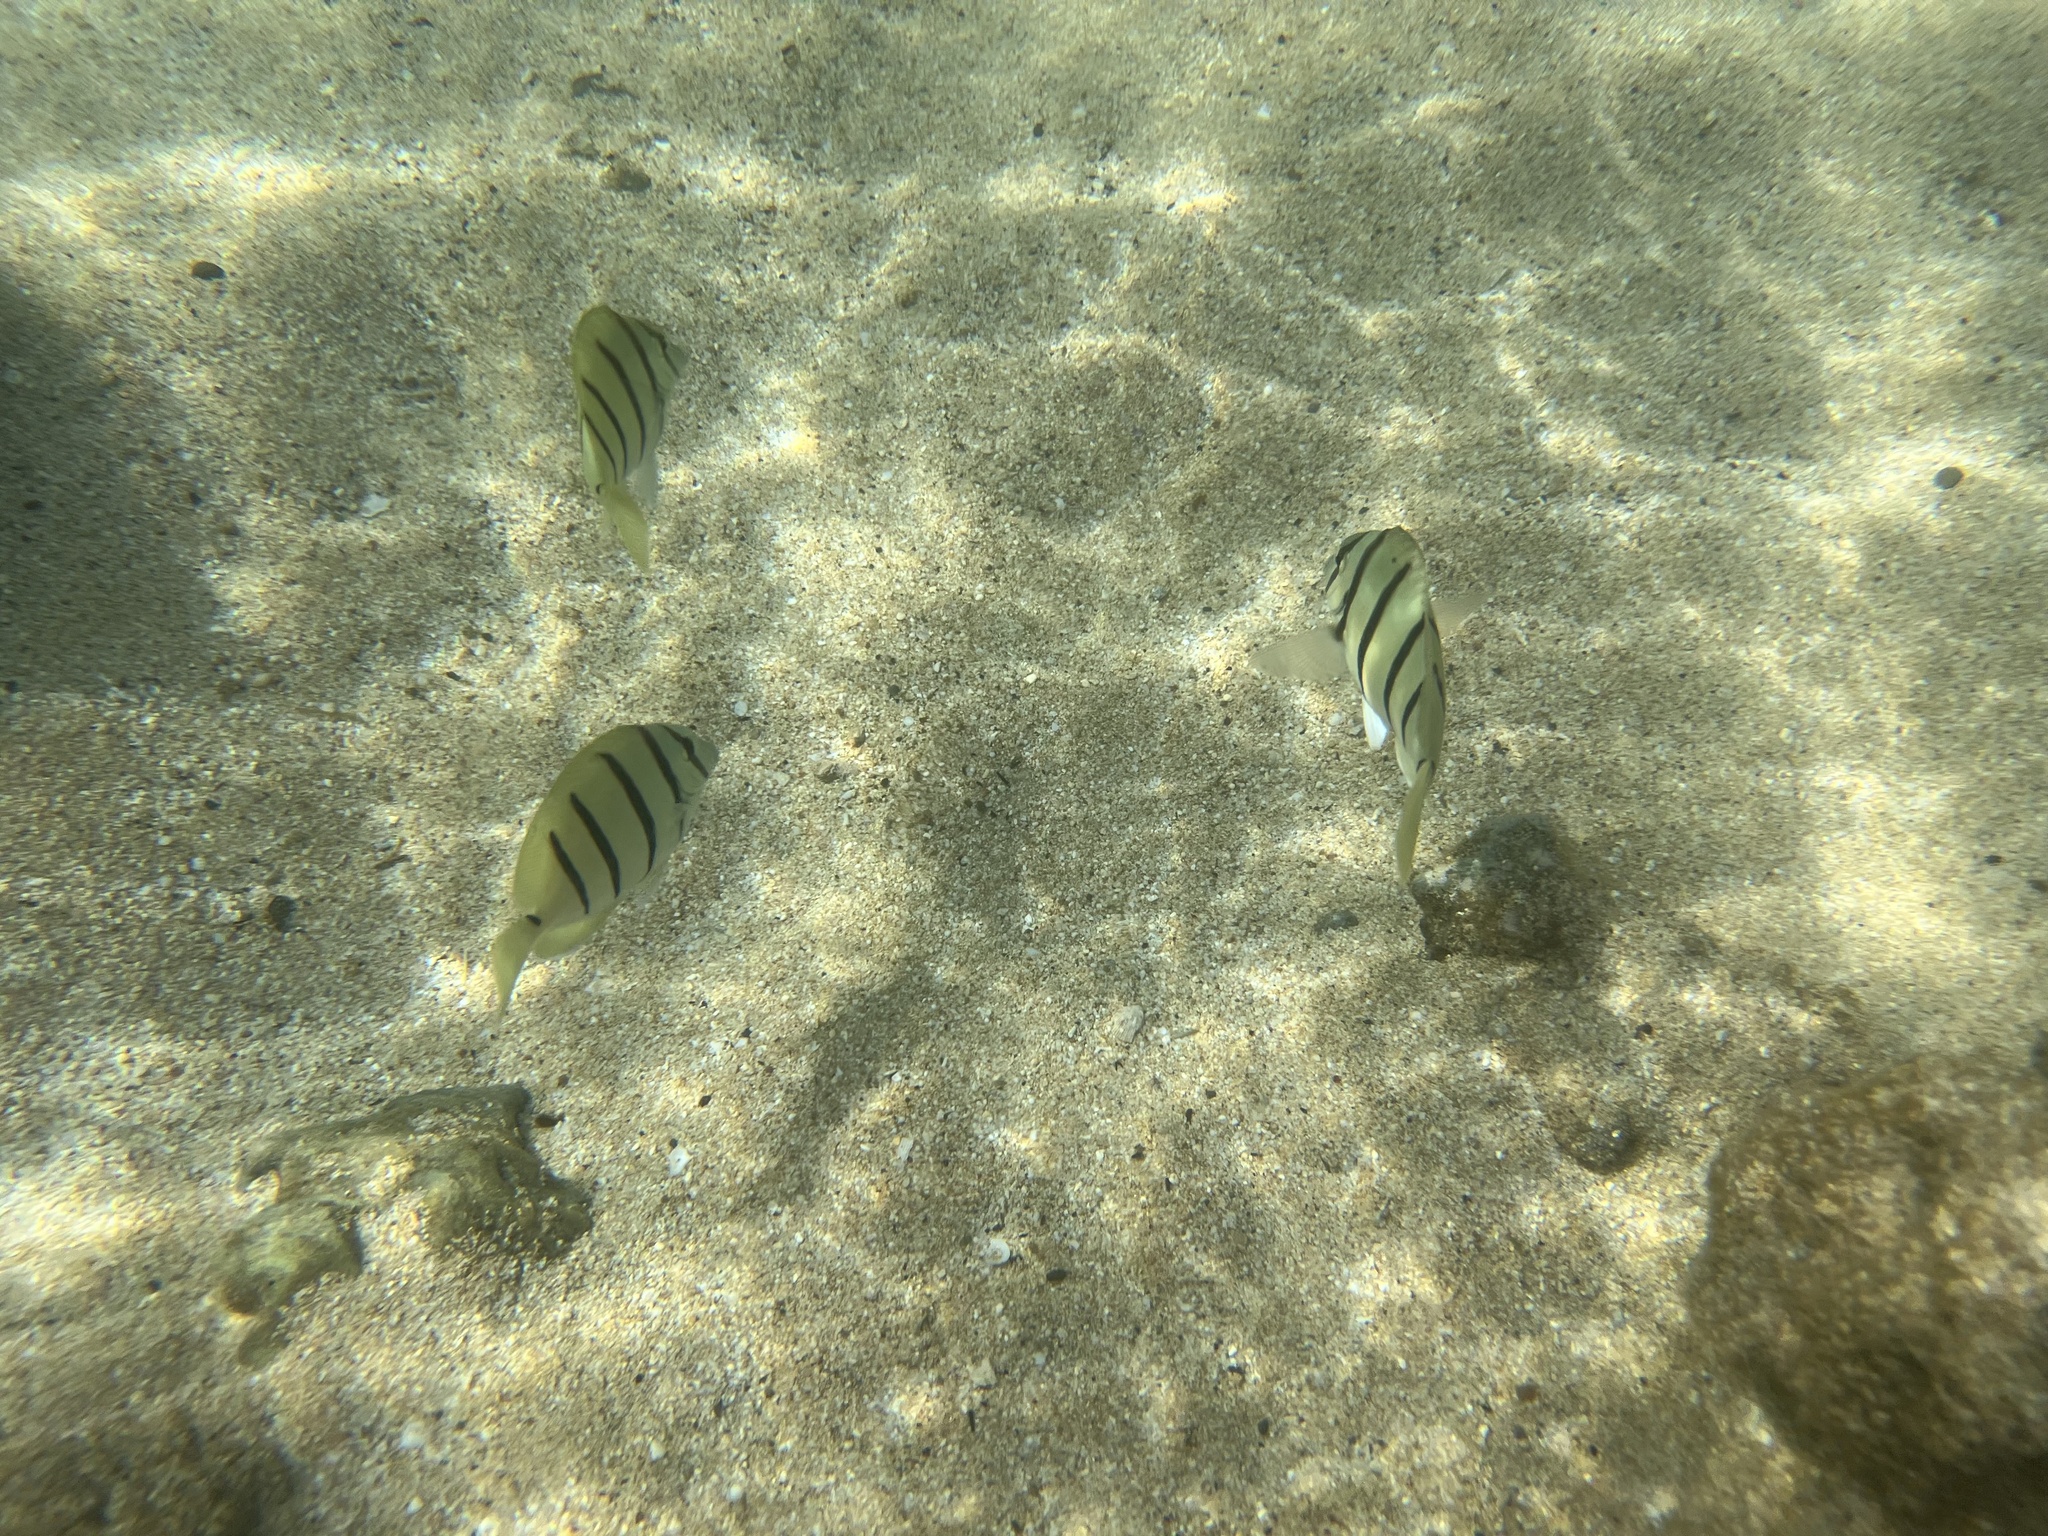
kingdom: Animalia
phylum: Chordata
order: Perciformes
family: Acanthuridae
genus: Acanthurus
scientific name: Acanthurus triostegus
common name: Convict surgeonfish
